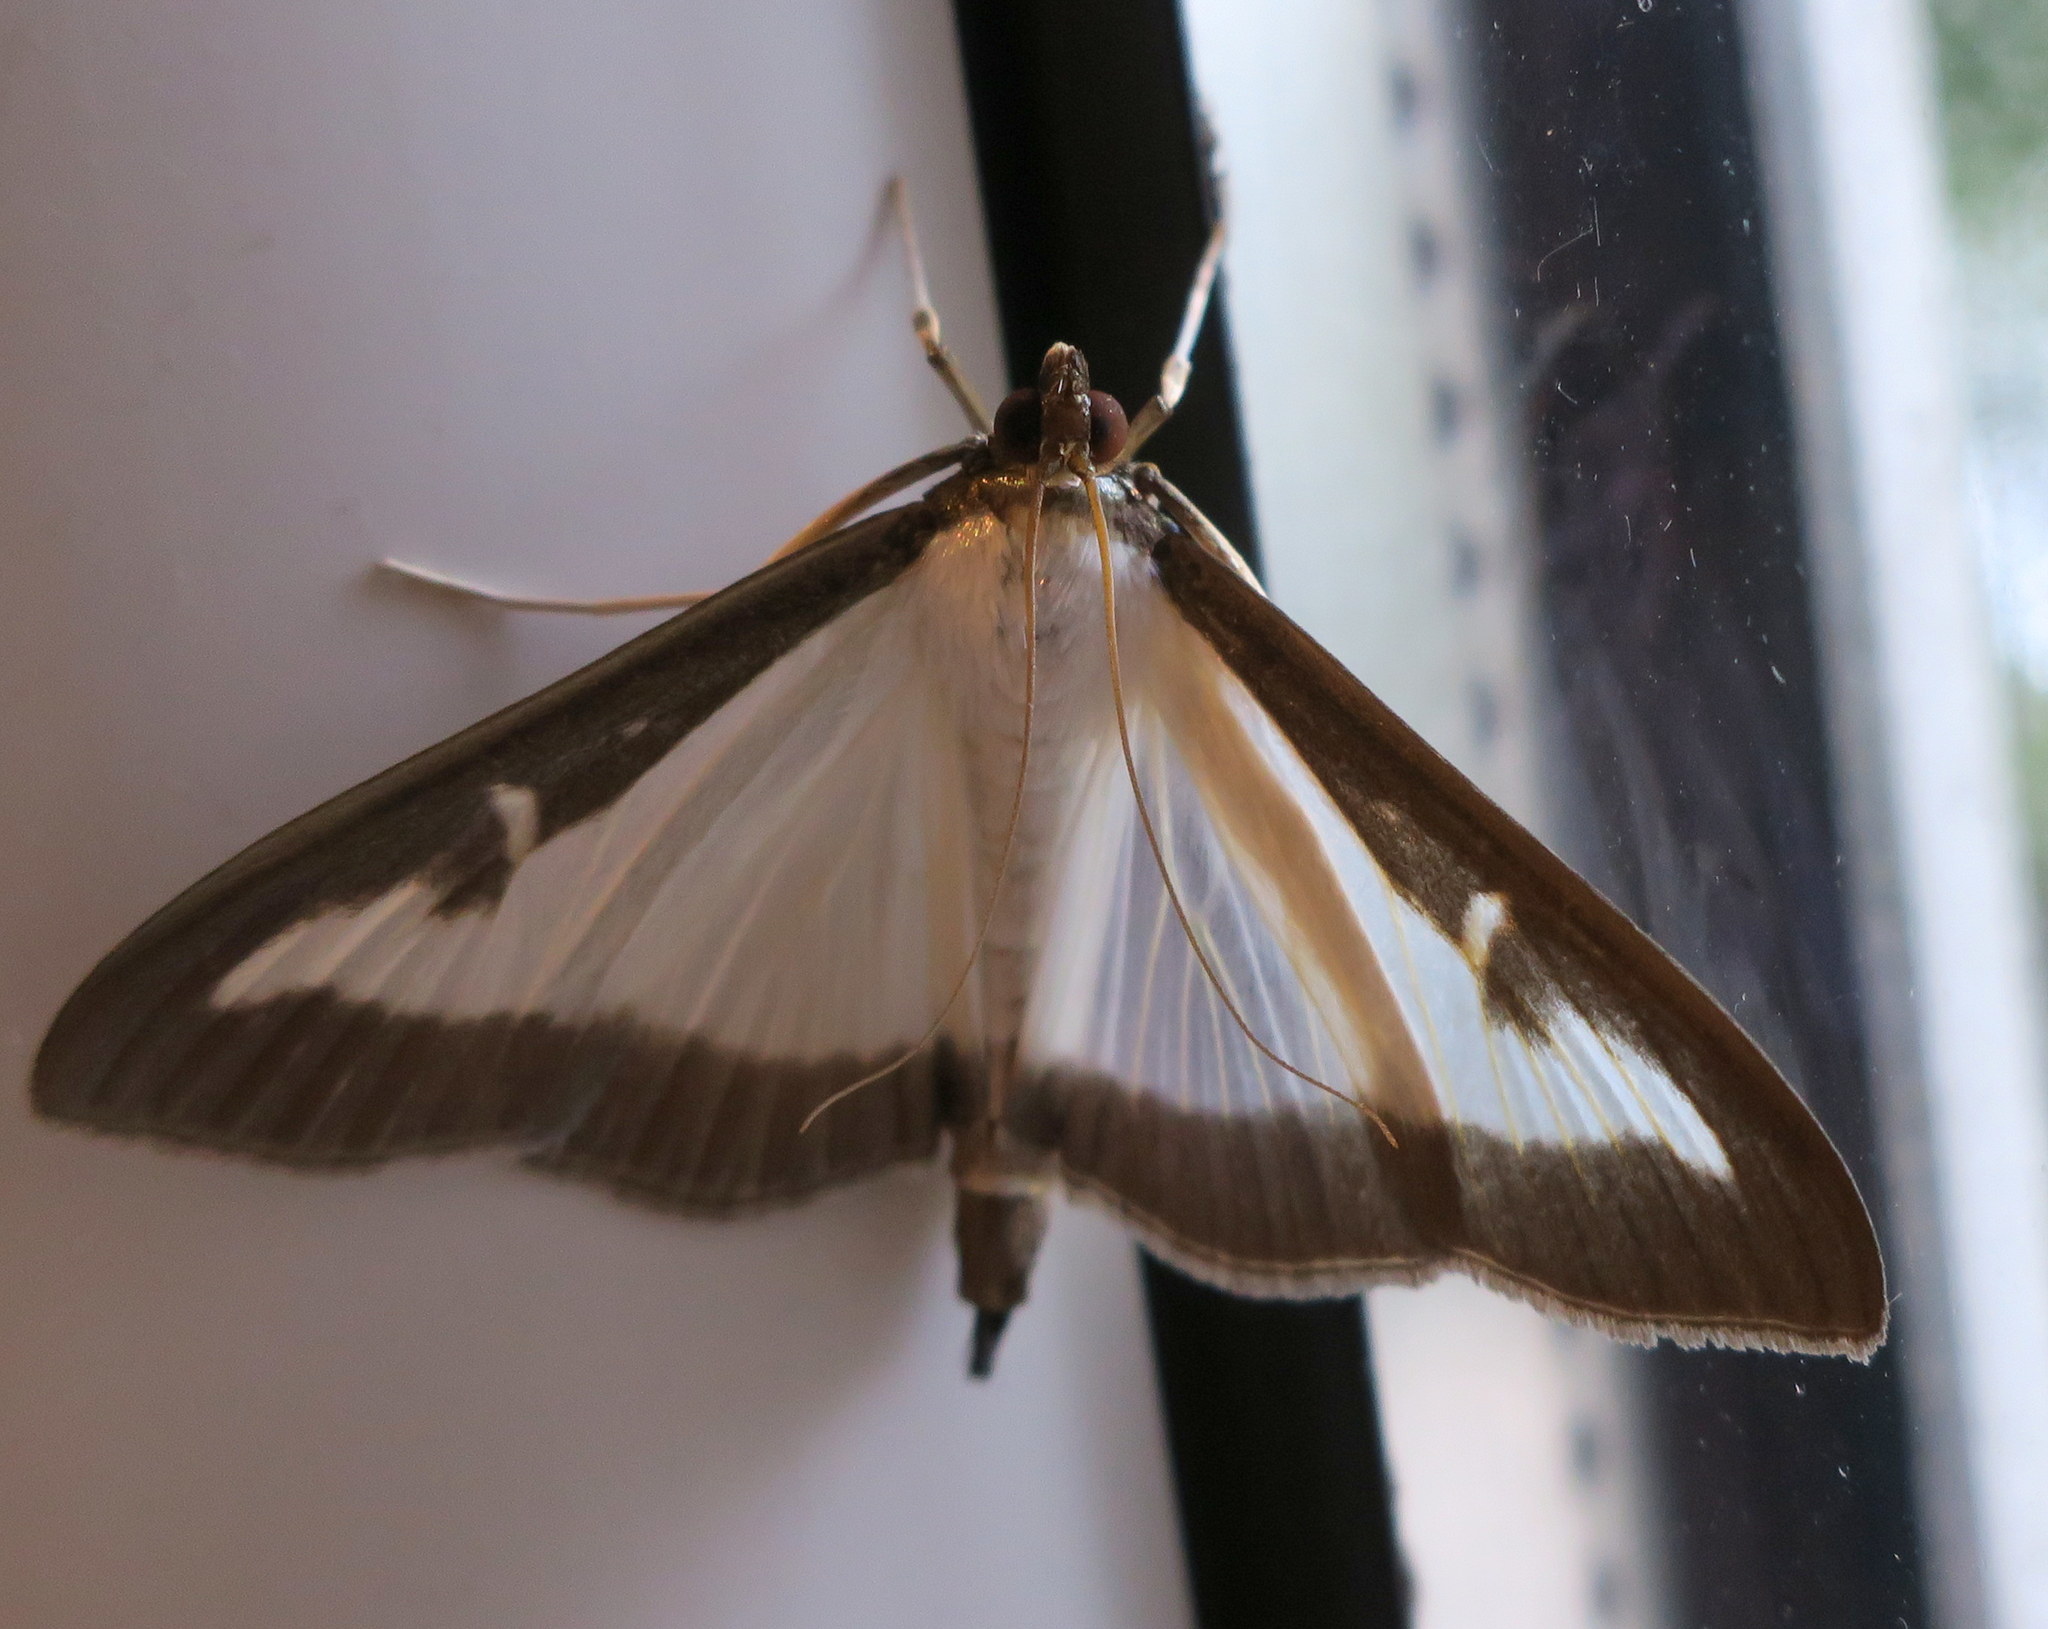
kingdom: Animalia
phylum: Arthropoda
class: Insecta
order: Lepidoptera
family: Crambidae
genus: Cydalima
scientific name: Cydalima perspectalis
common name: Box tree moth
